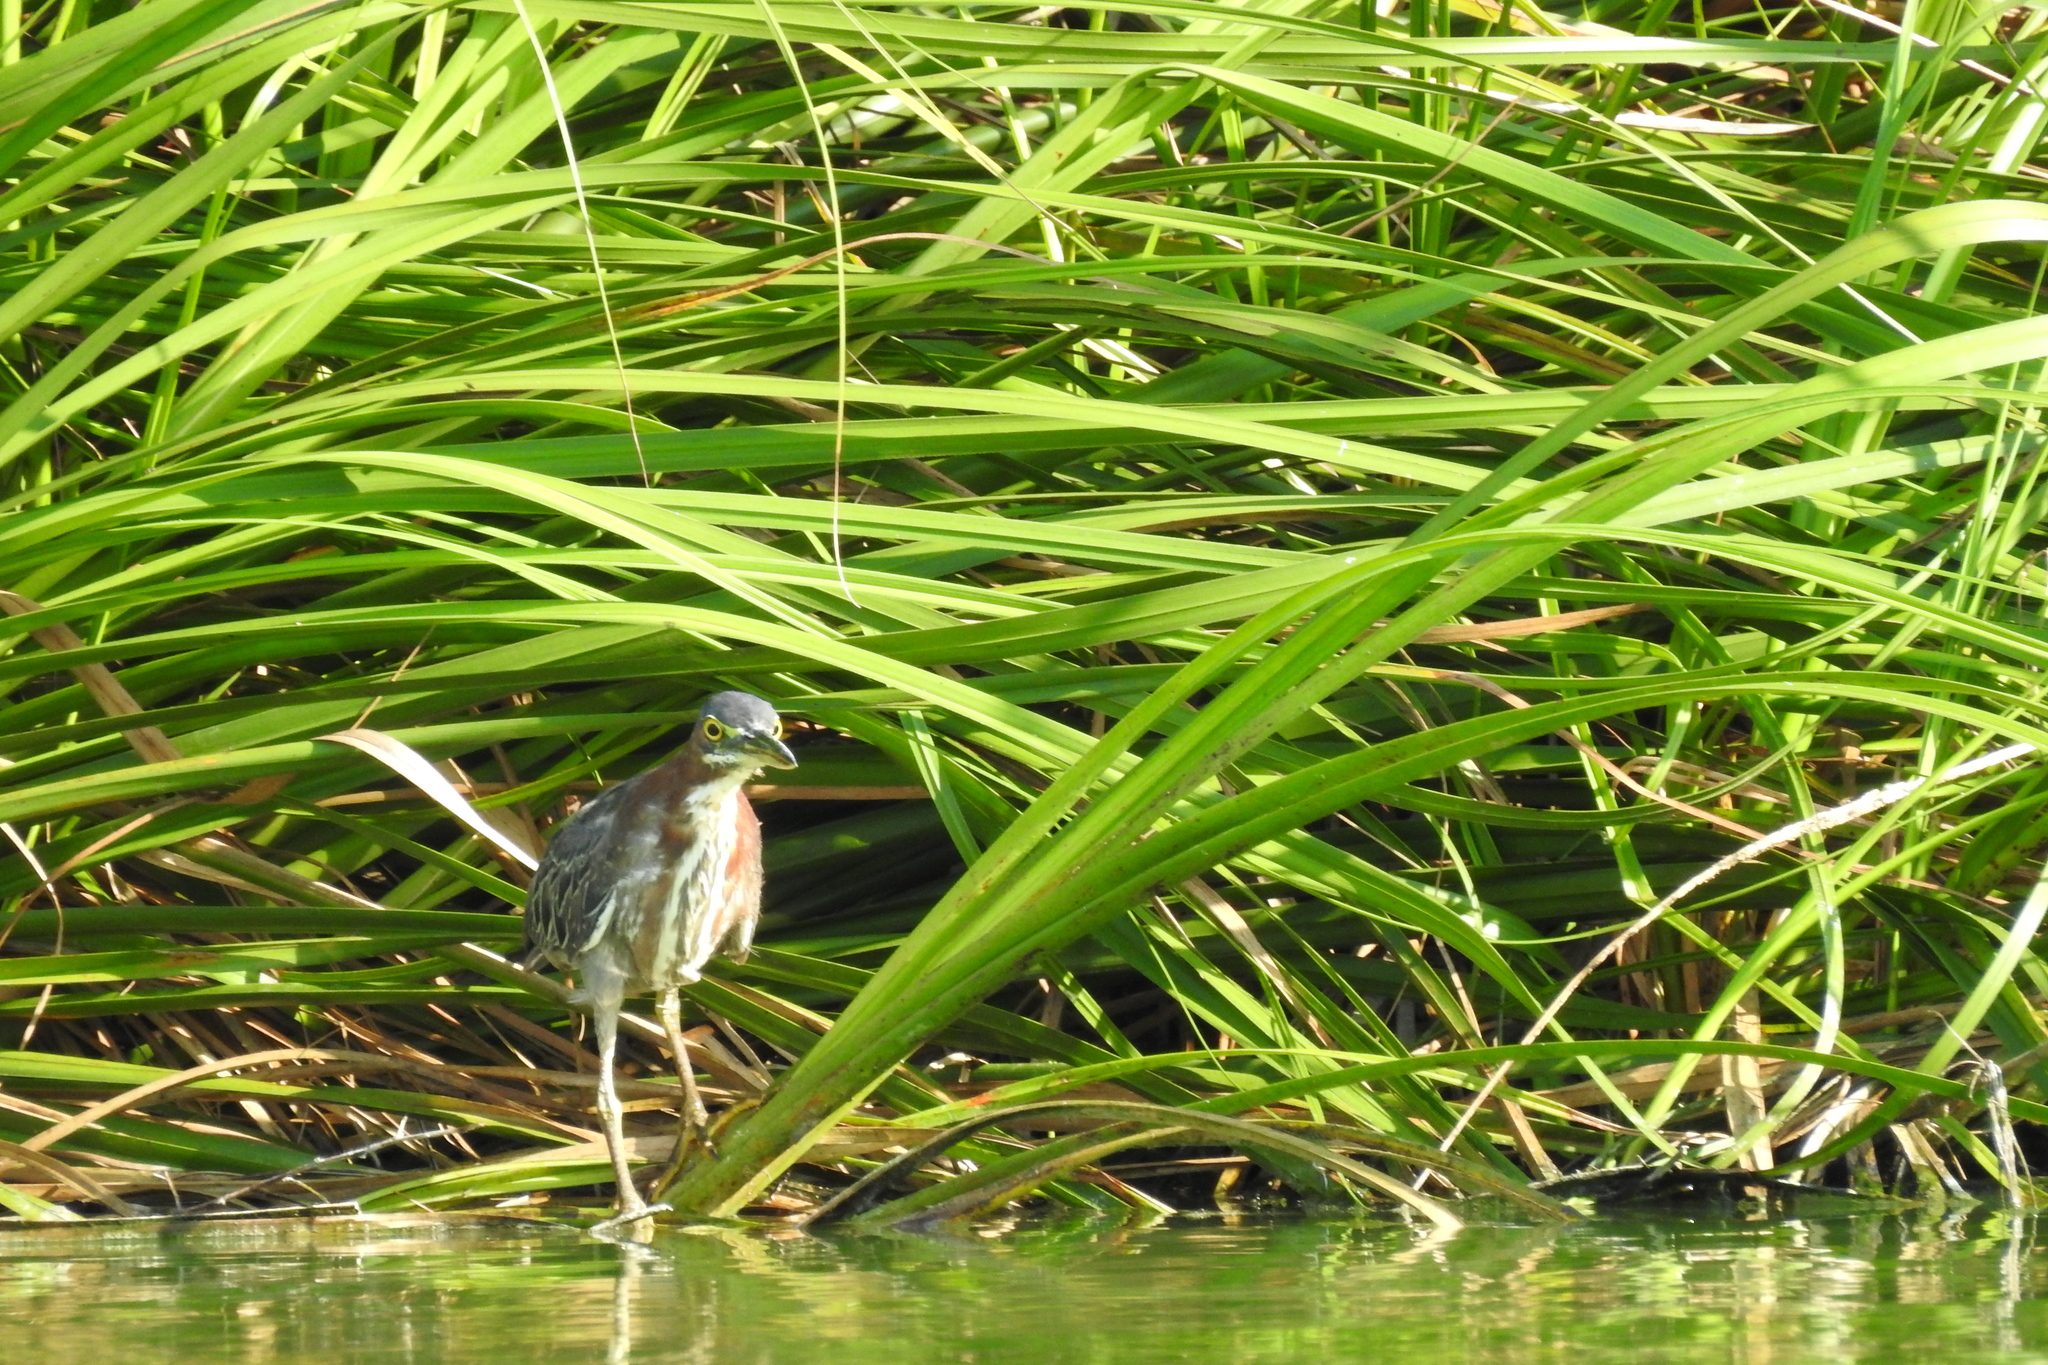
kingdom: Animalia
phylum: Chordata
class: Aves
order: Pelecaniformes
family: Ardeidae
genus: Butorides
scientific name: Butorides virescens
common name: Green heron
